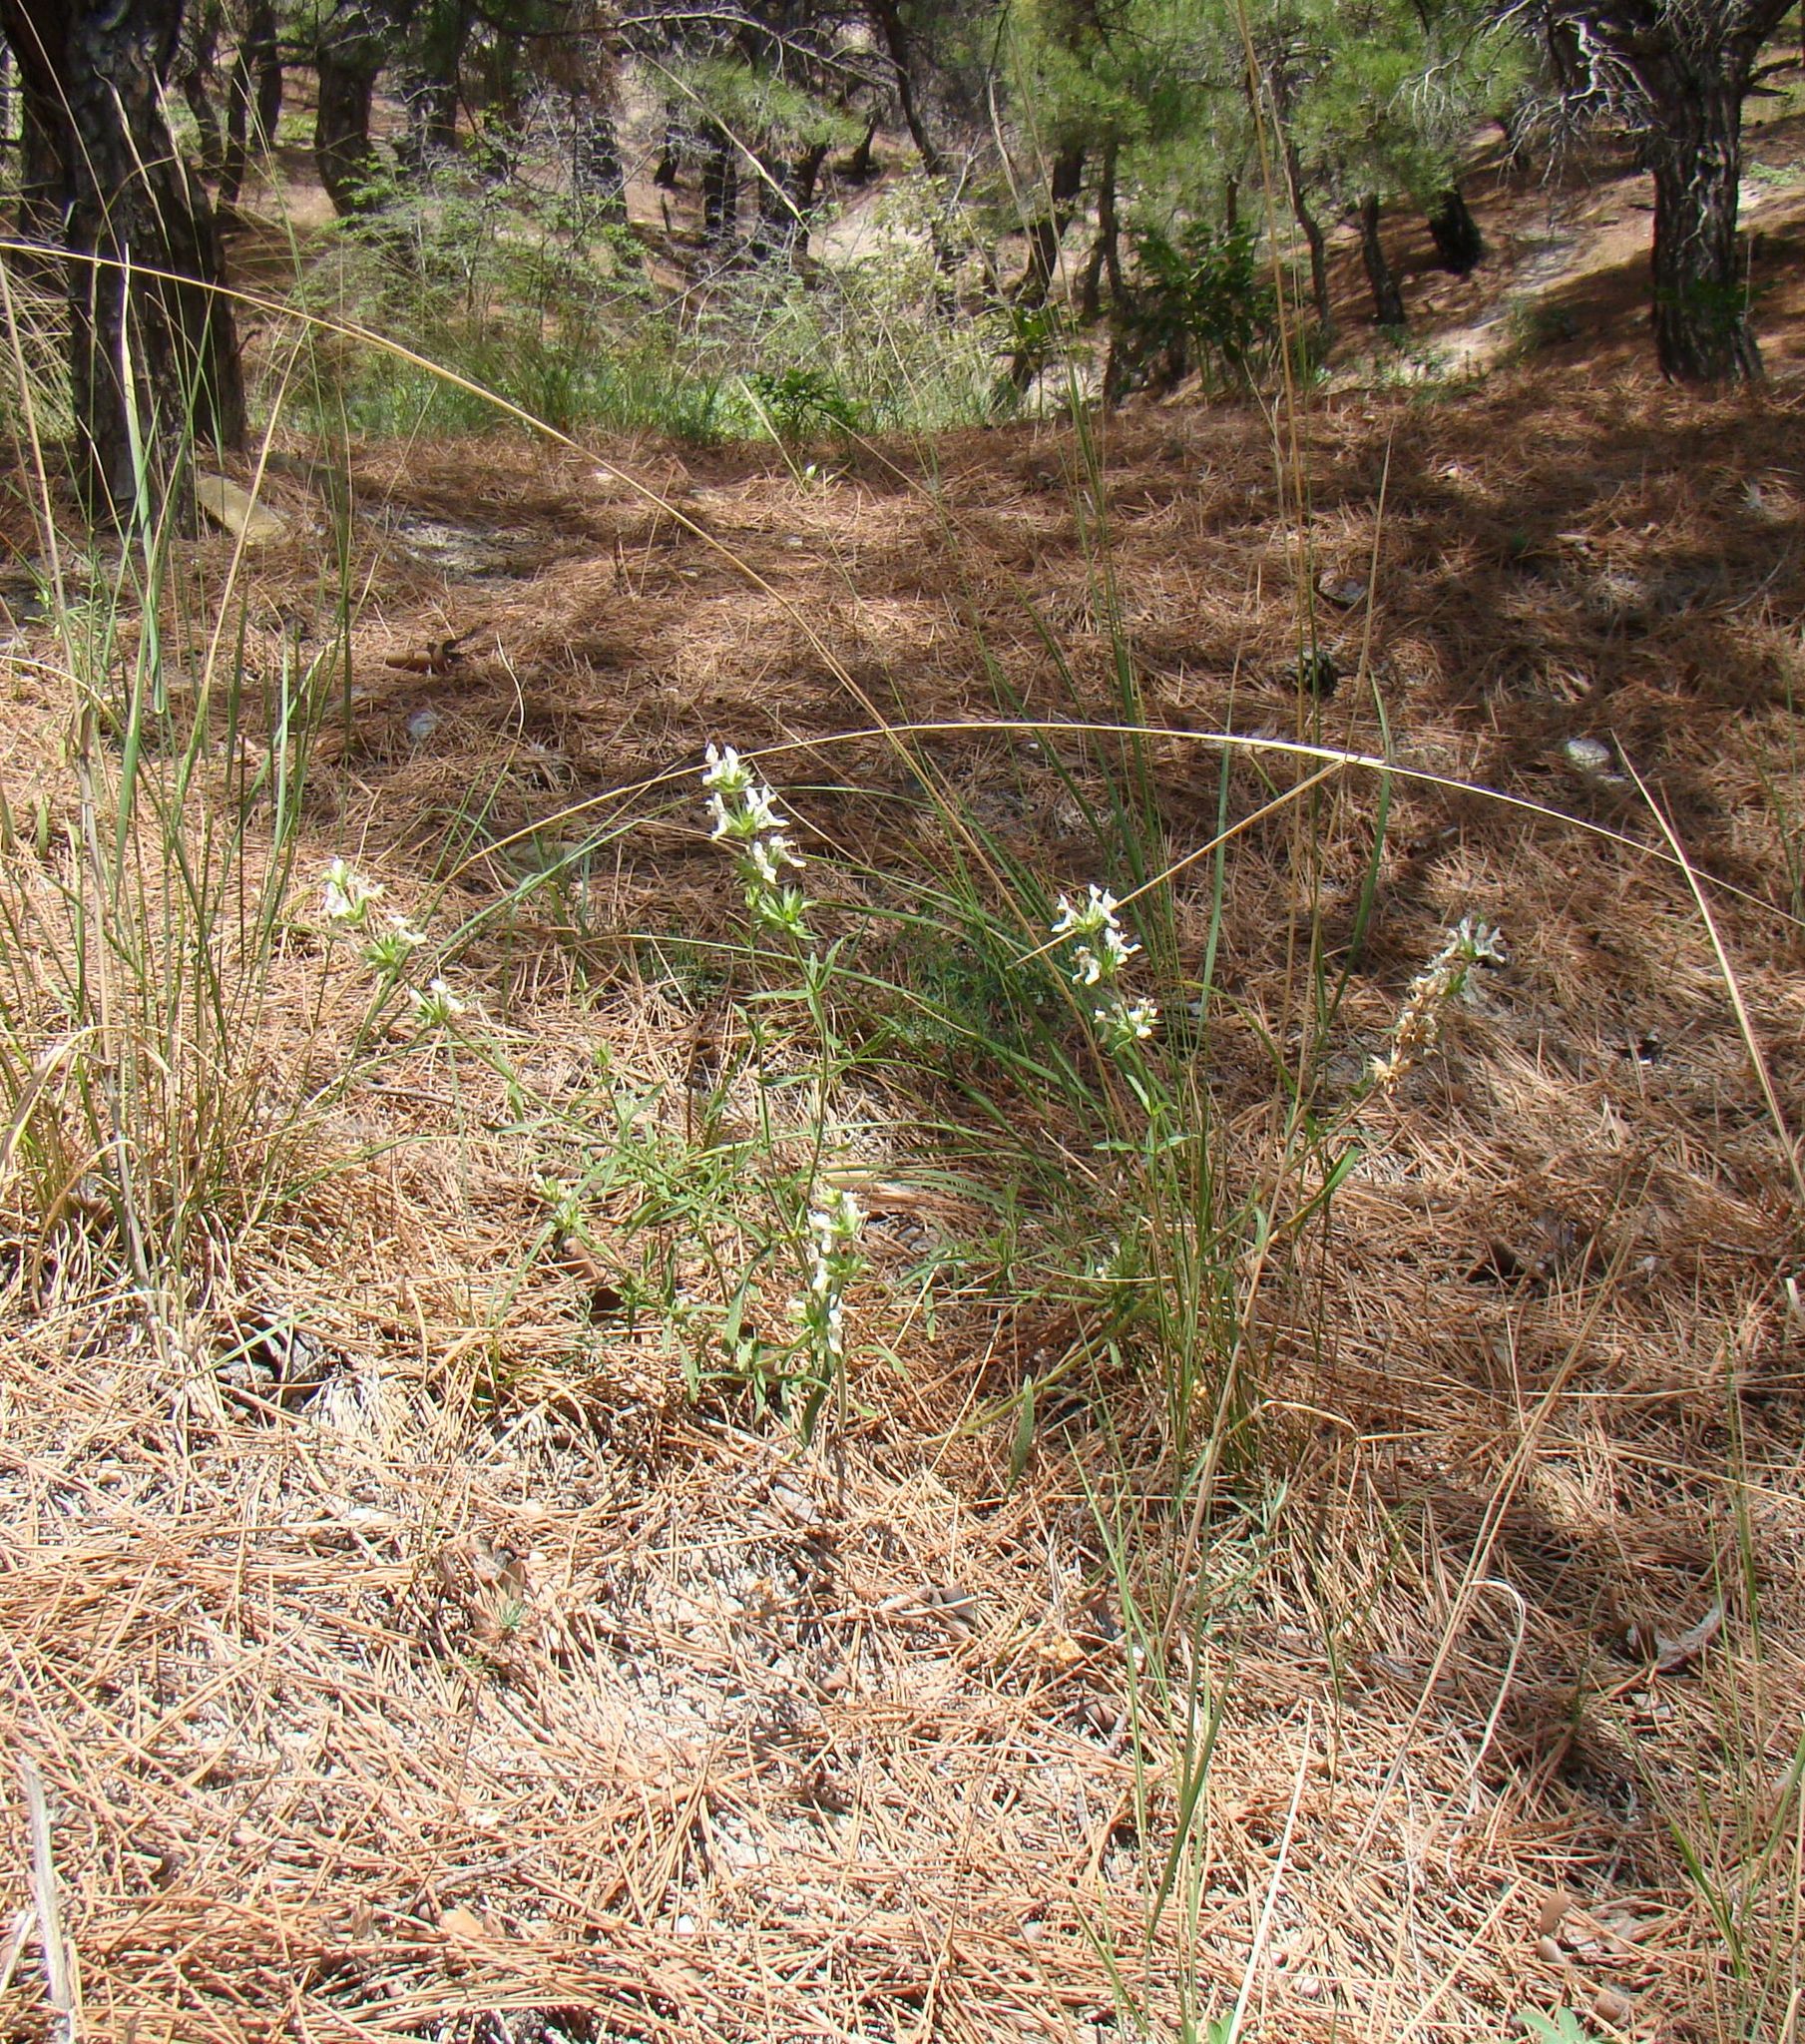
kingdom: Plantae
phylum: Tracheophyta
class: Magnoliopsida
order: Lamiales
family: Lamiaceae
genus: Stachys
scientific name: Stachys atherocalyx
